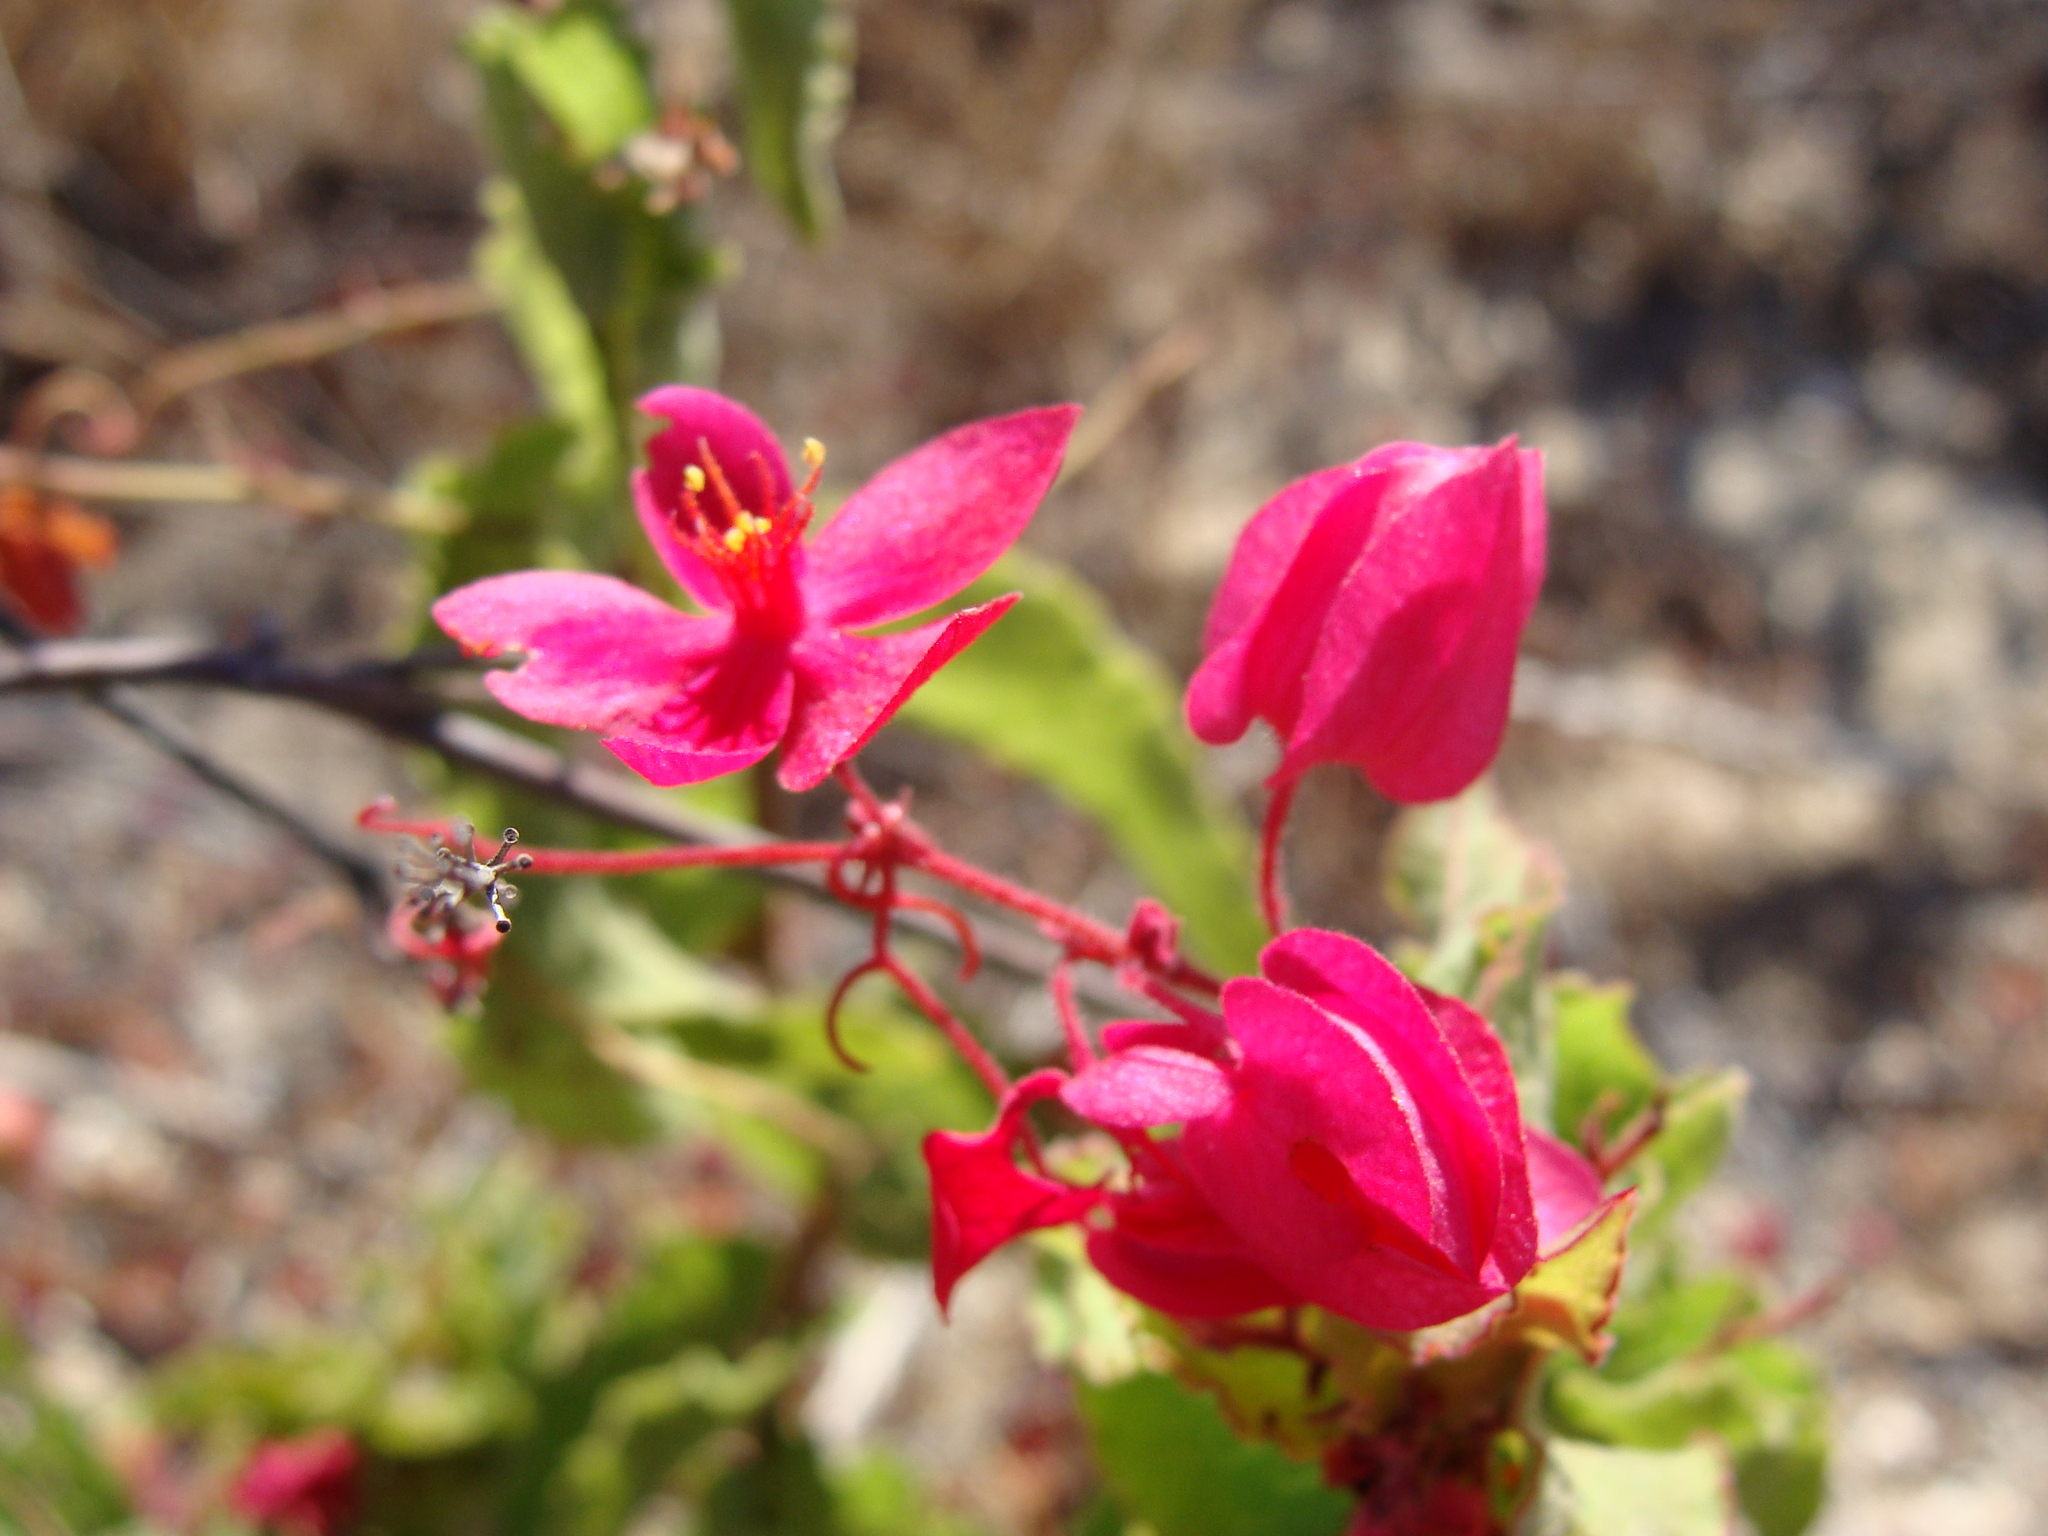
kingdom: Plantae
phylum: Tracheophyta
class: Magnoliopsida
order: Caryophyllales
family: Polygonaceae
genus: Antigonon
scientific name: Antigonon leptopus
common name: Coral vine
